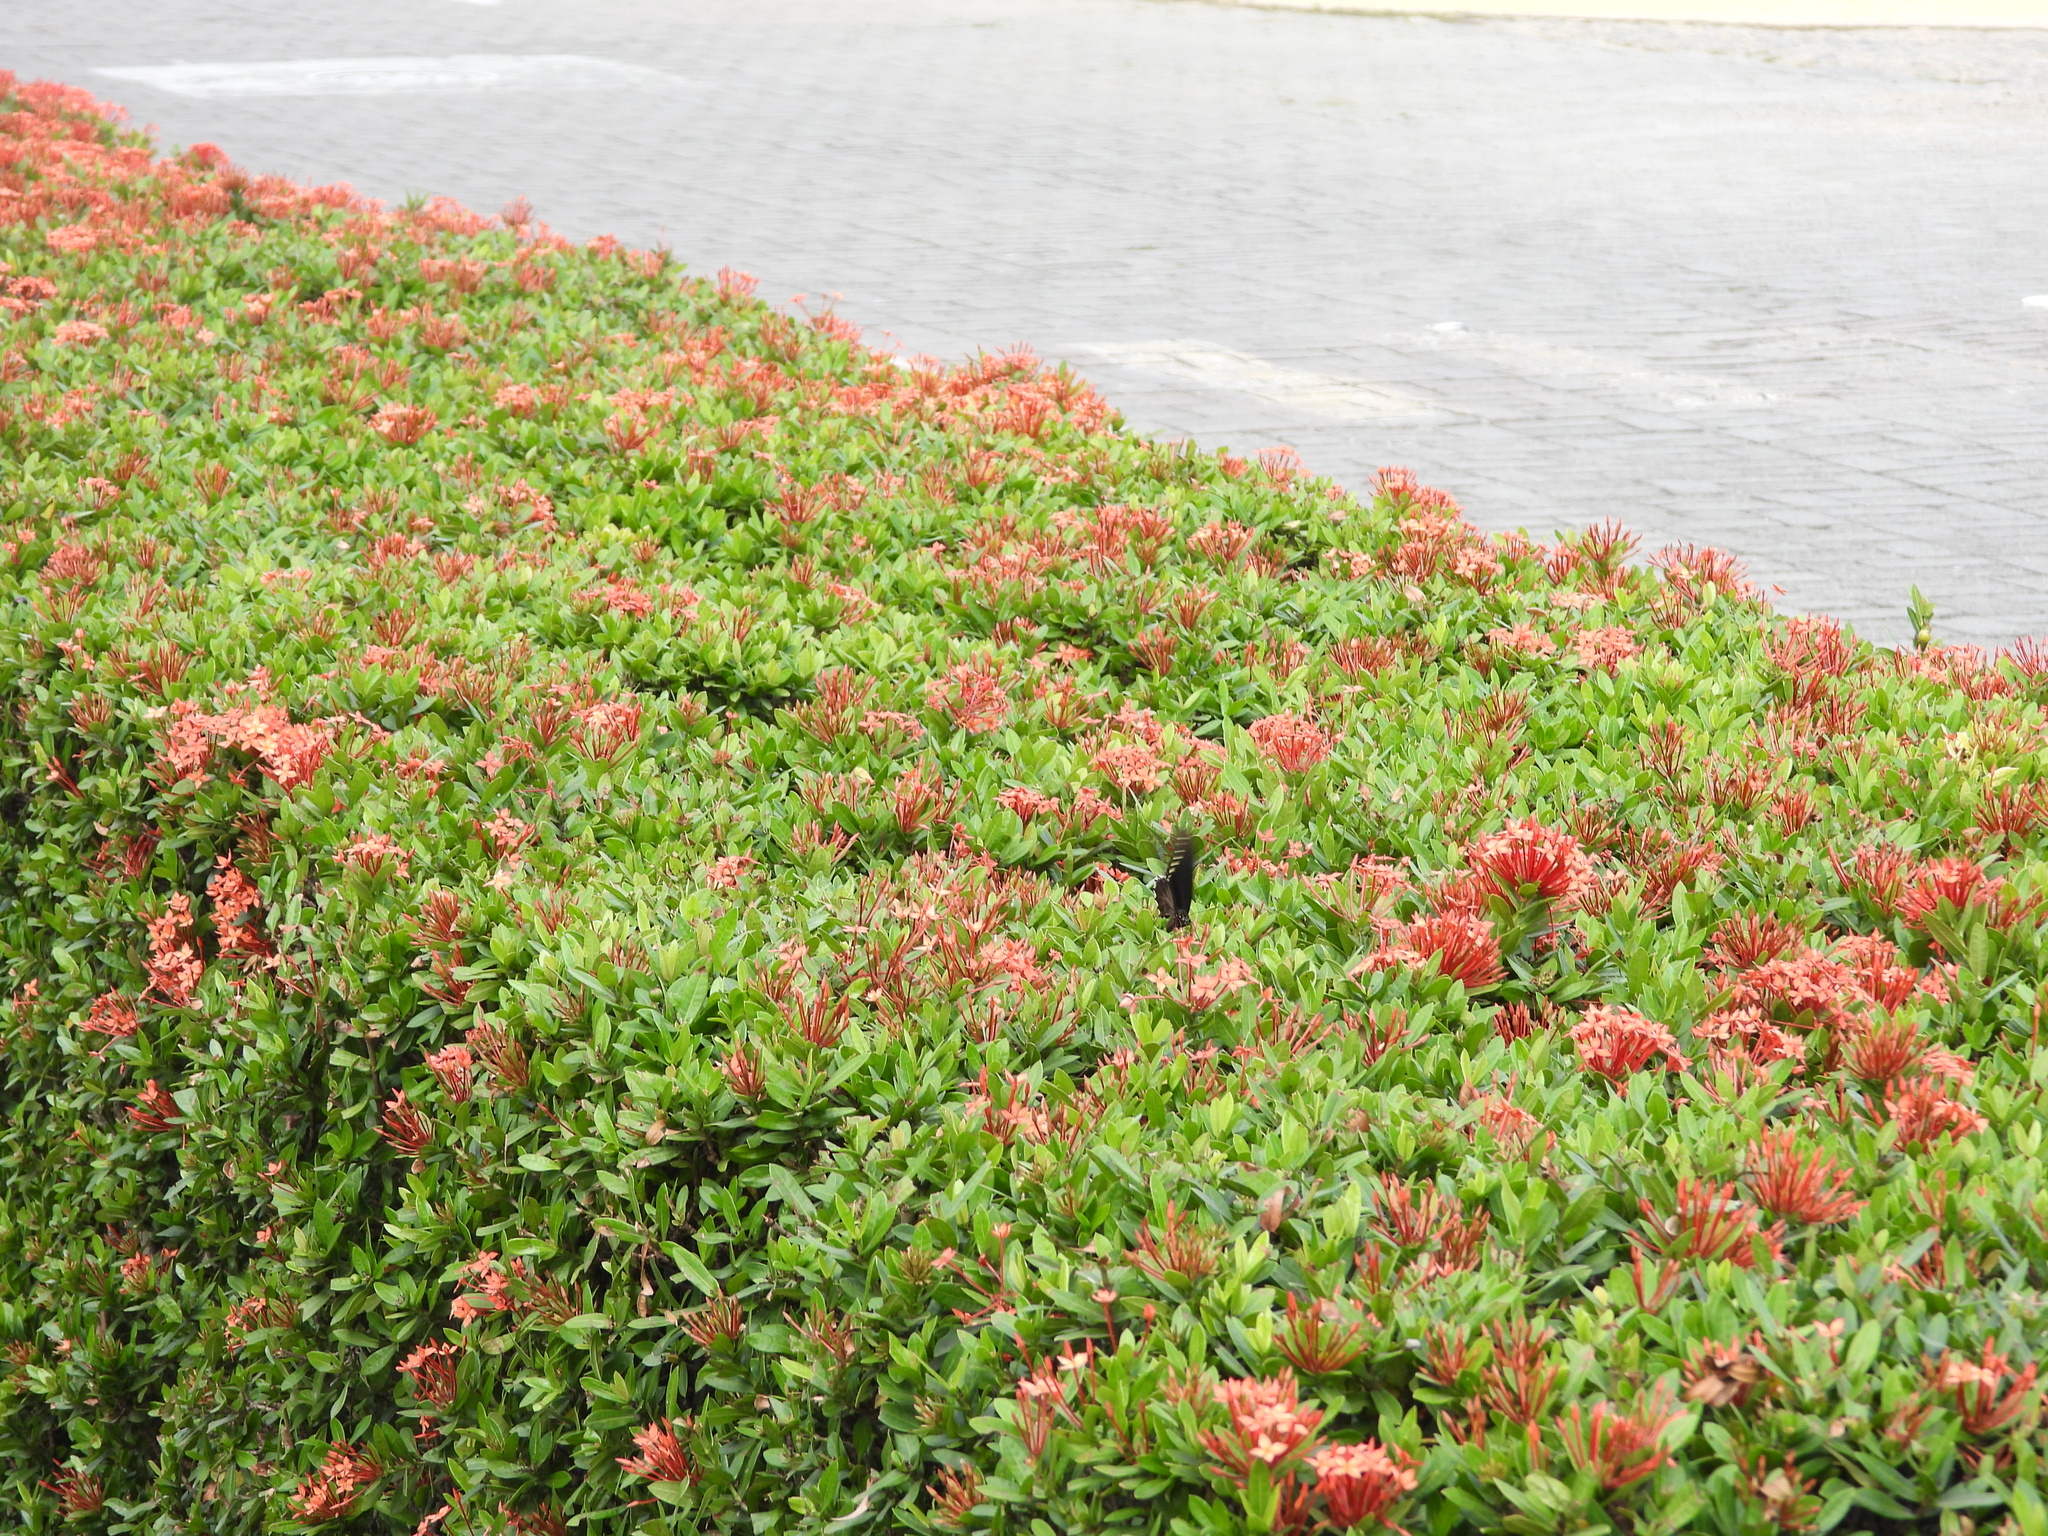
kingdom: Animalia
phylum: Arthropoda
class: Insecta
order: Lepidoptera
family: Papilionidae
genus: Battus
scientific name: Battus polydamas
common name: Polydamas swallowtail
